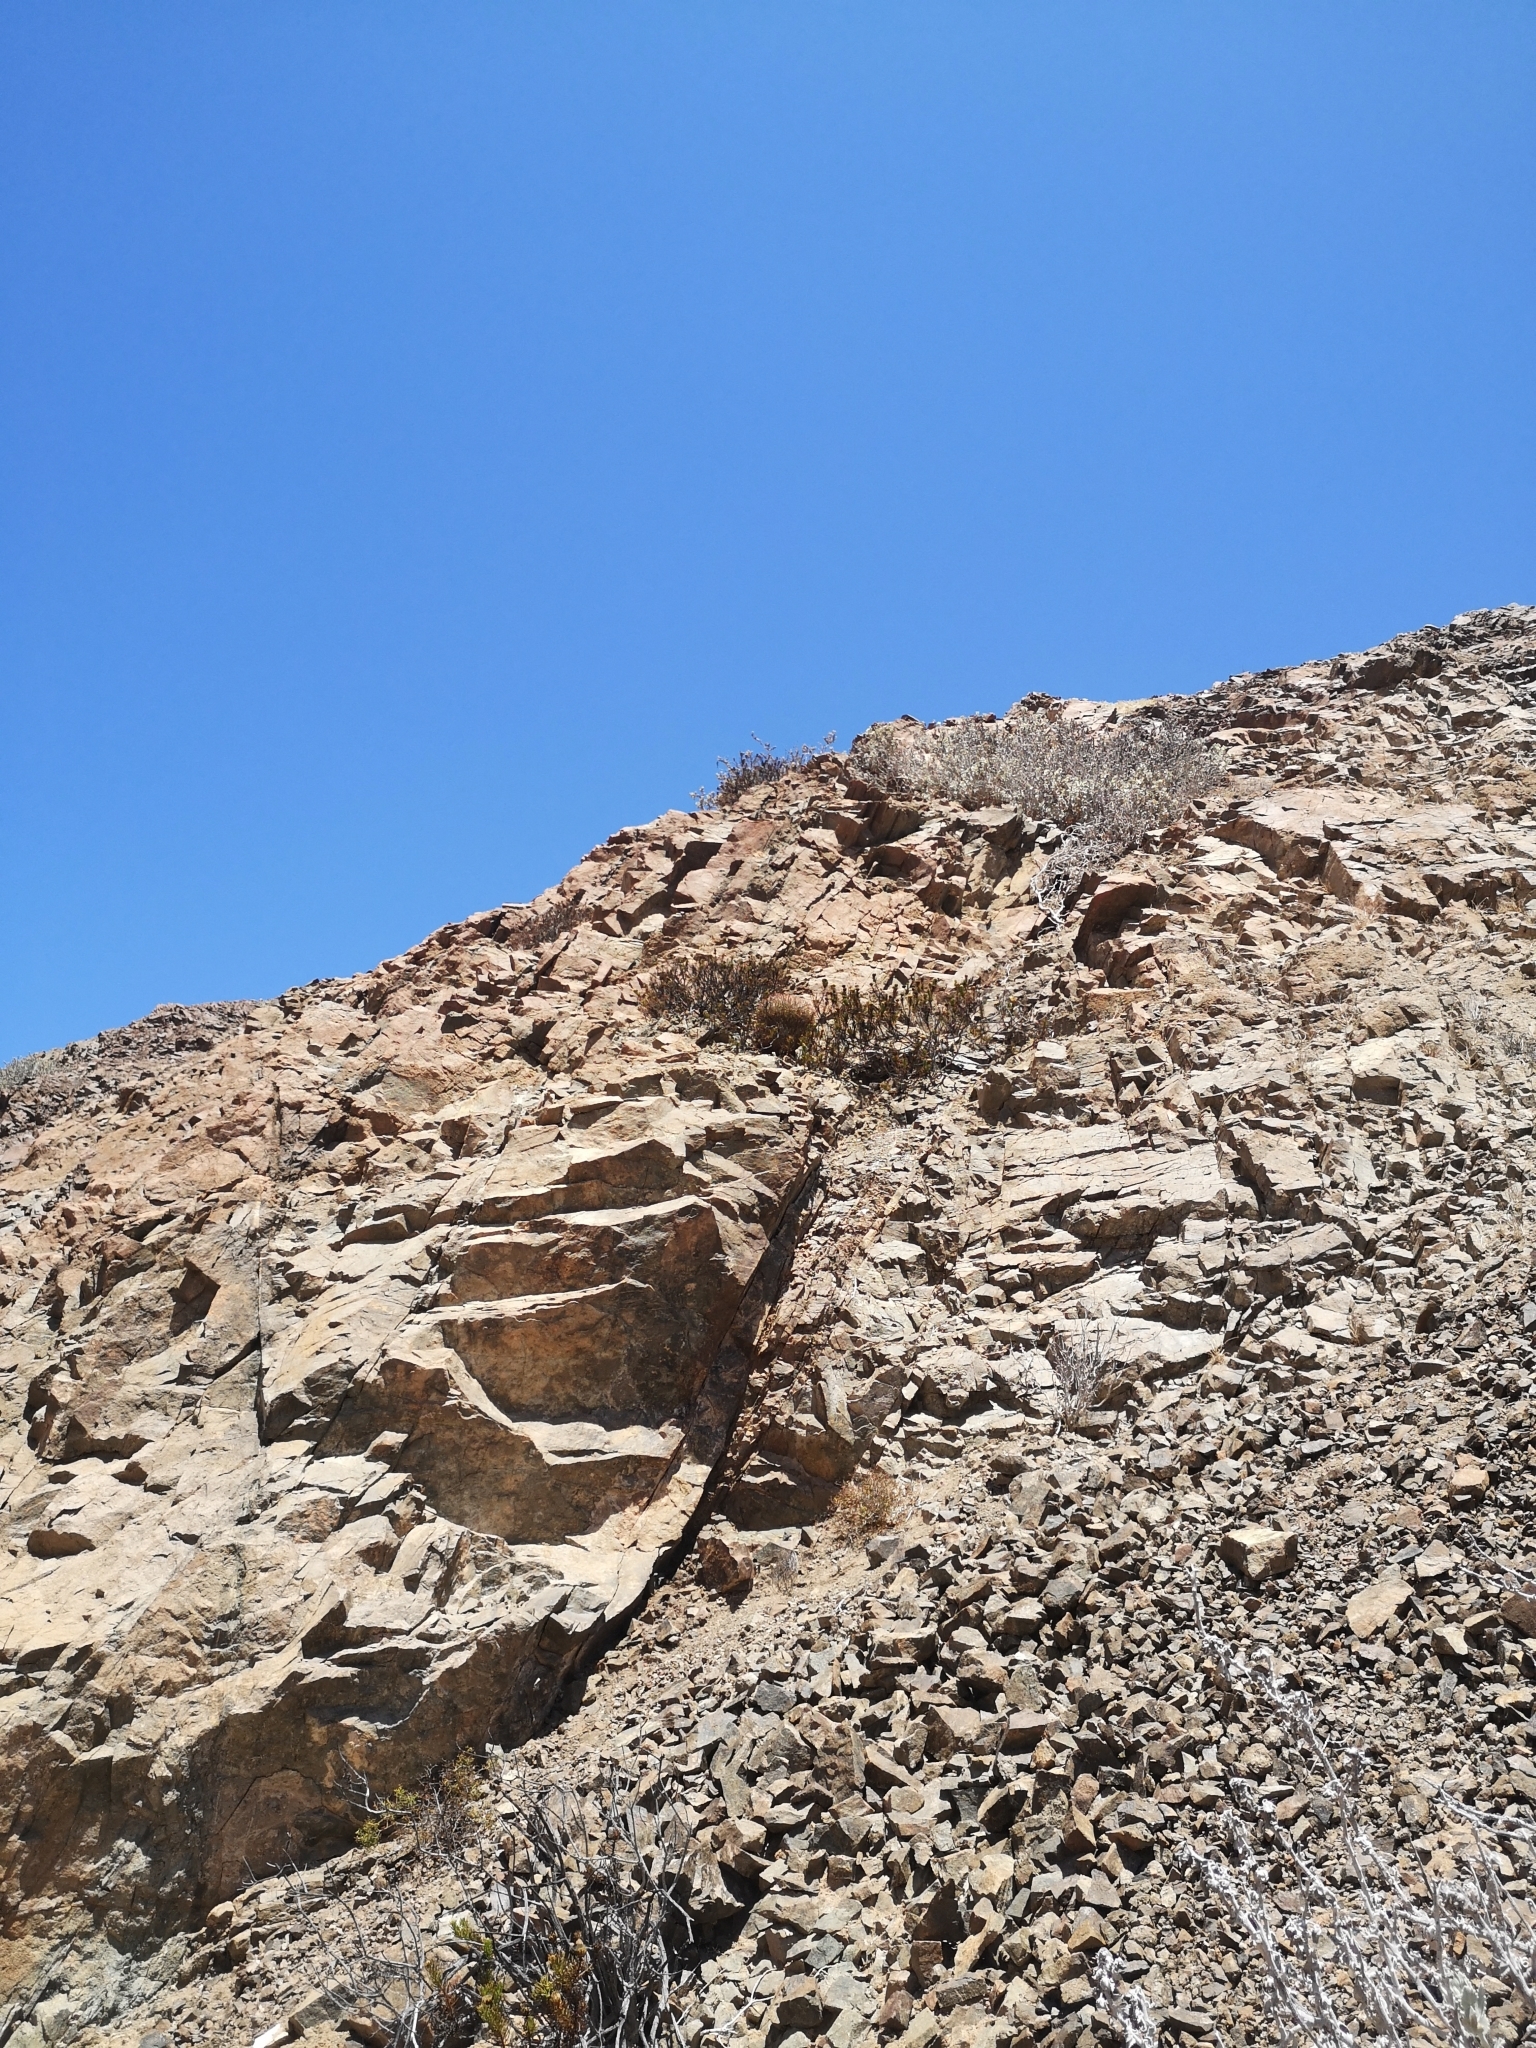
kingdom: Plantae
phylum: Tracheophyta
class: Magnoliopsida
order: Caryophyllales
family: Cactaceae
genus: Eriosyce
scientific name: Eriosyce rodentiophila
